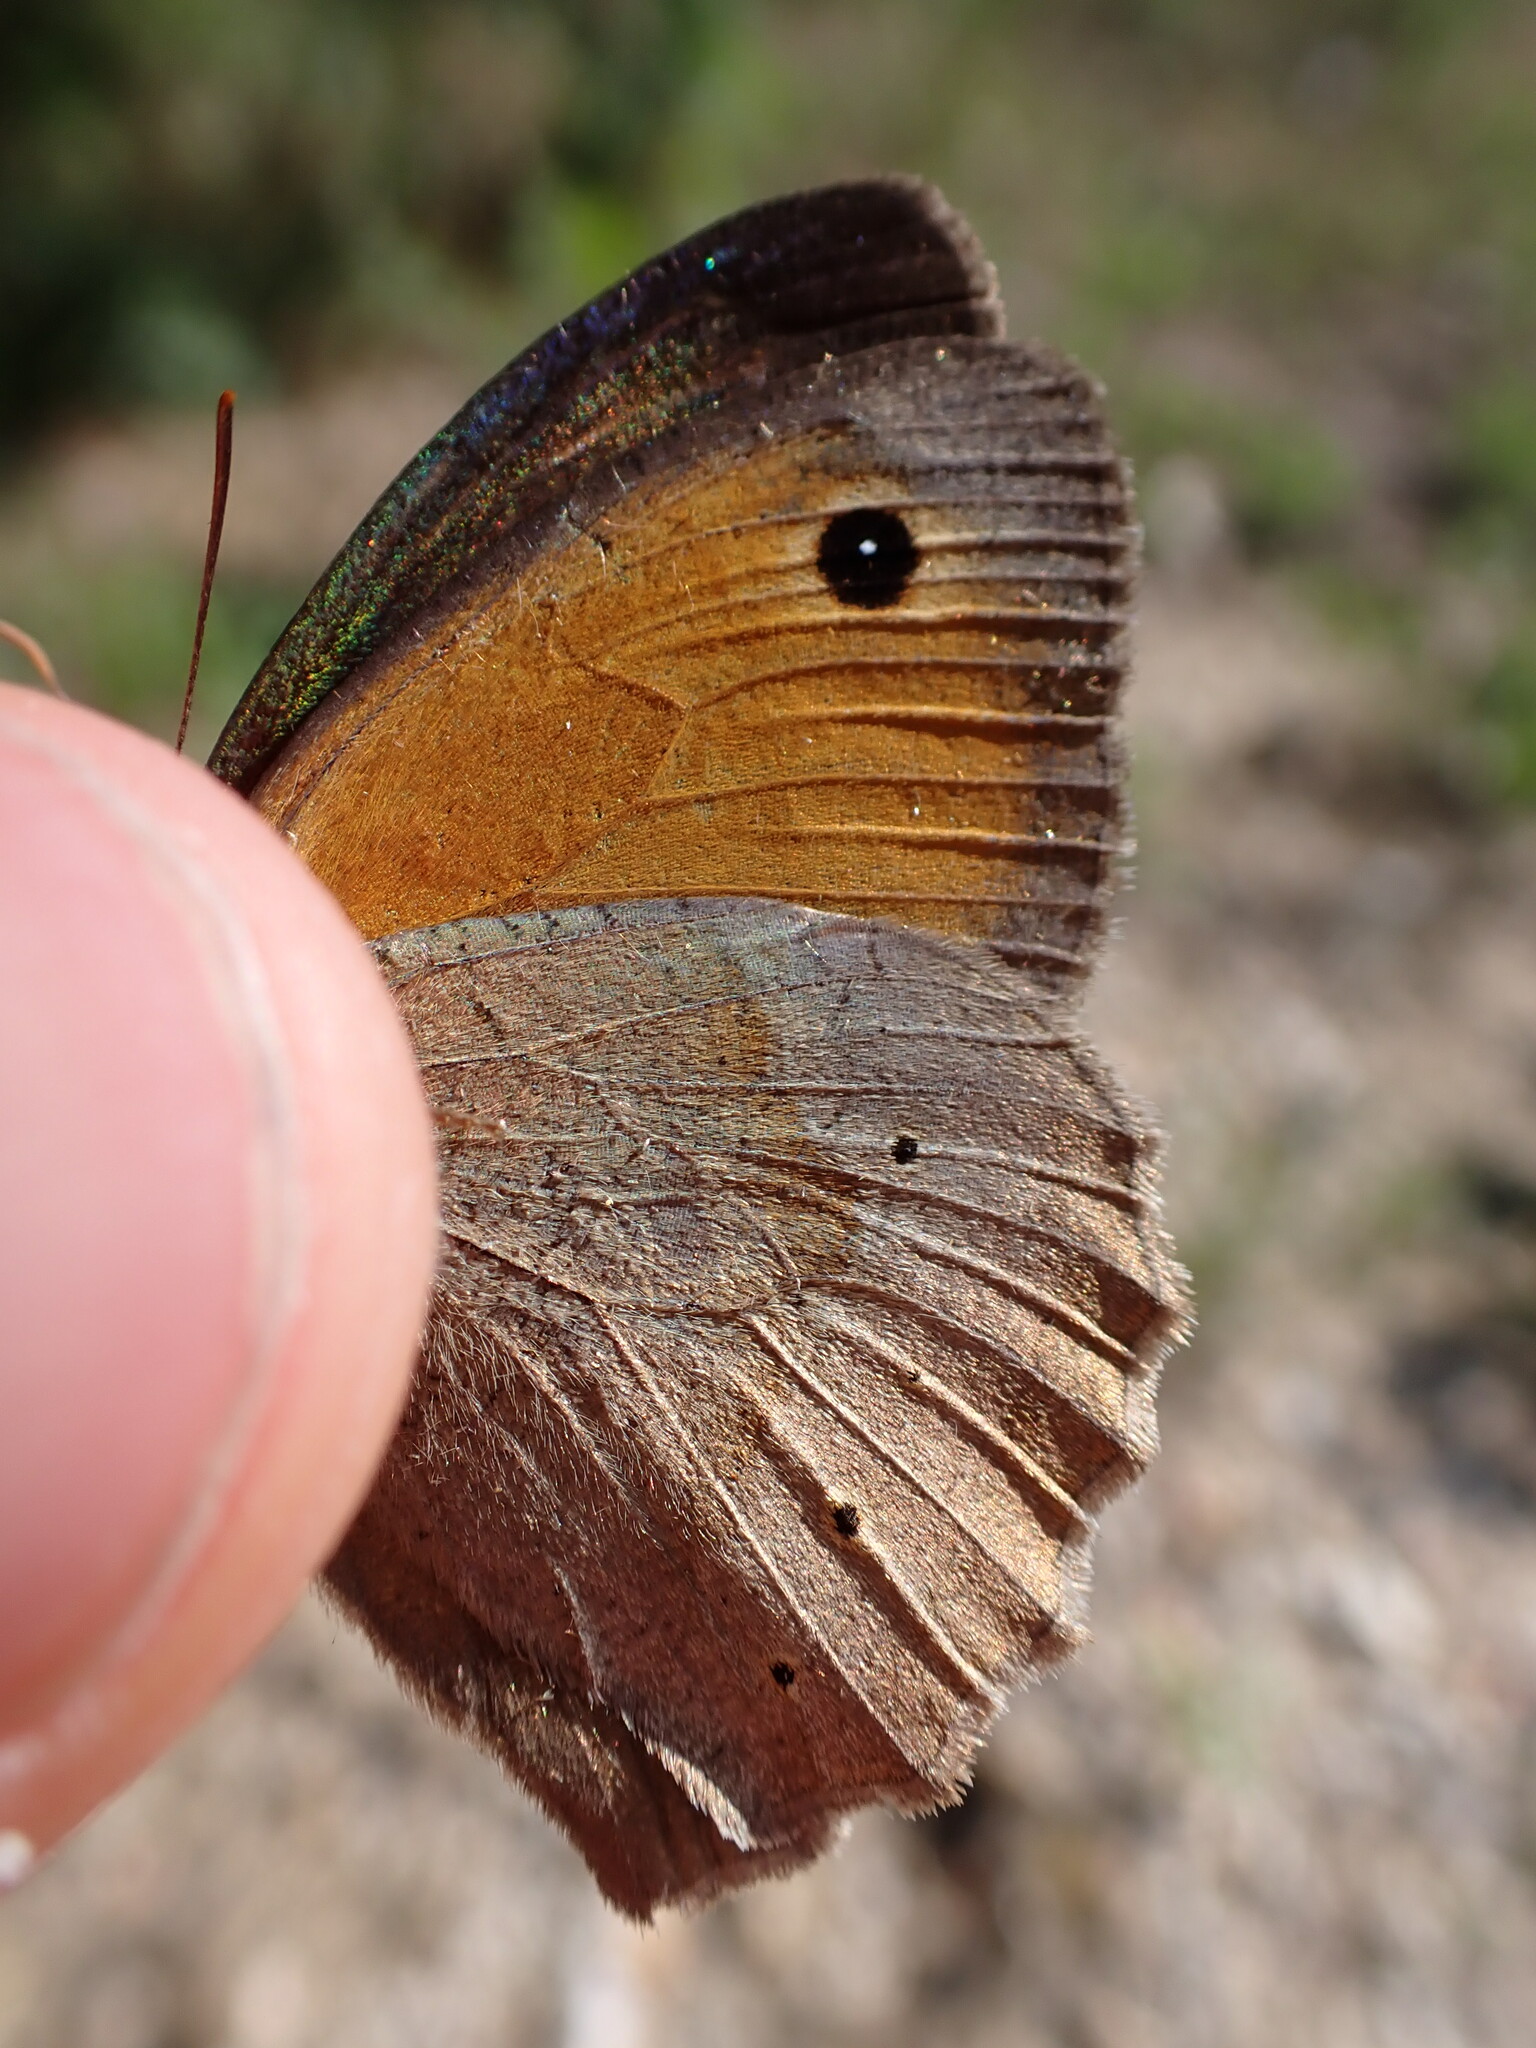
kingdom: Animalia
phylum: Arthropoda
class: Insecta
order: Lepidoptera
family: Nymphalidae
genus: Maniola
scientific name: Maniola jurtina
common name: Meadow brown
